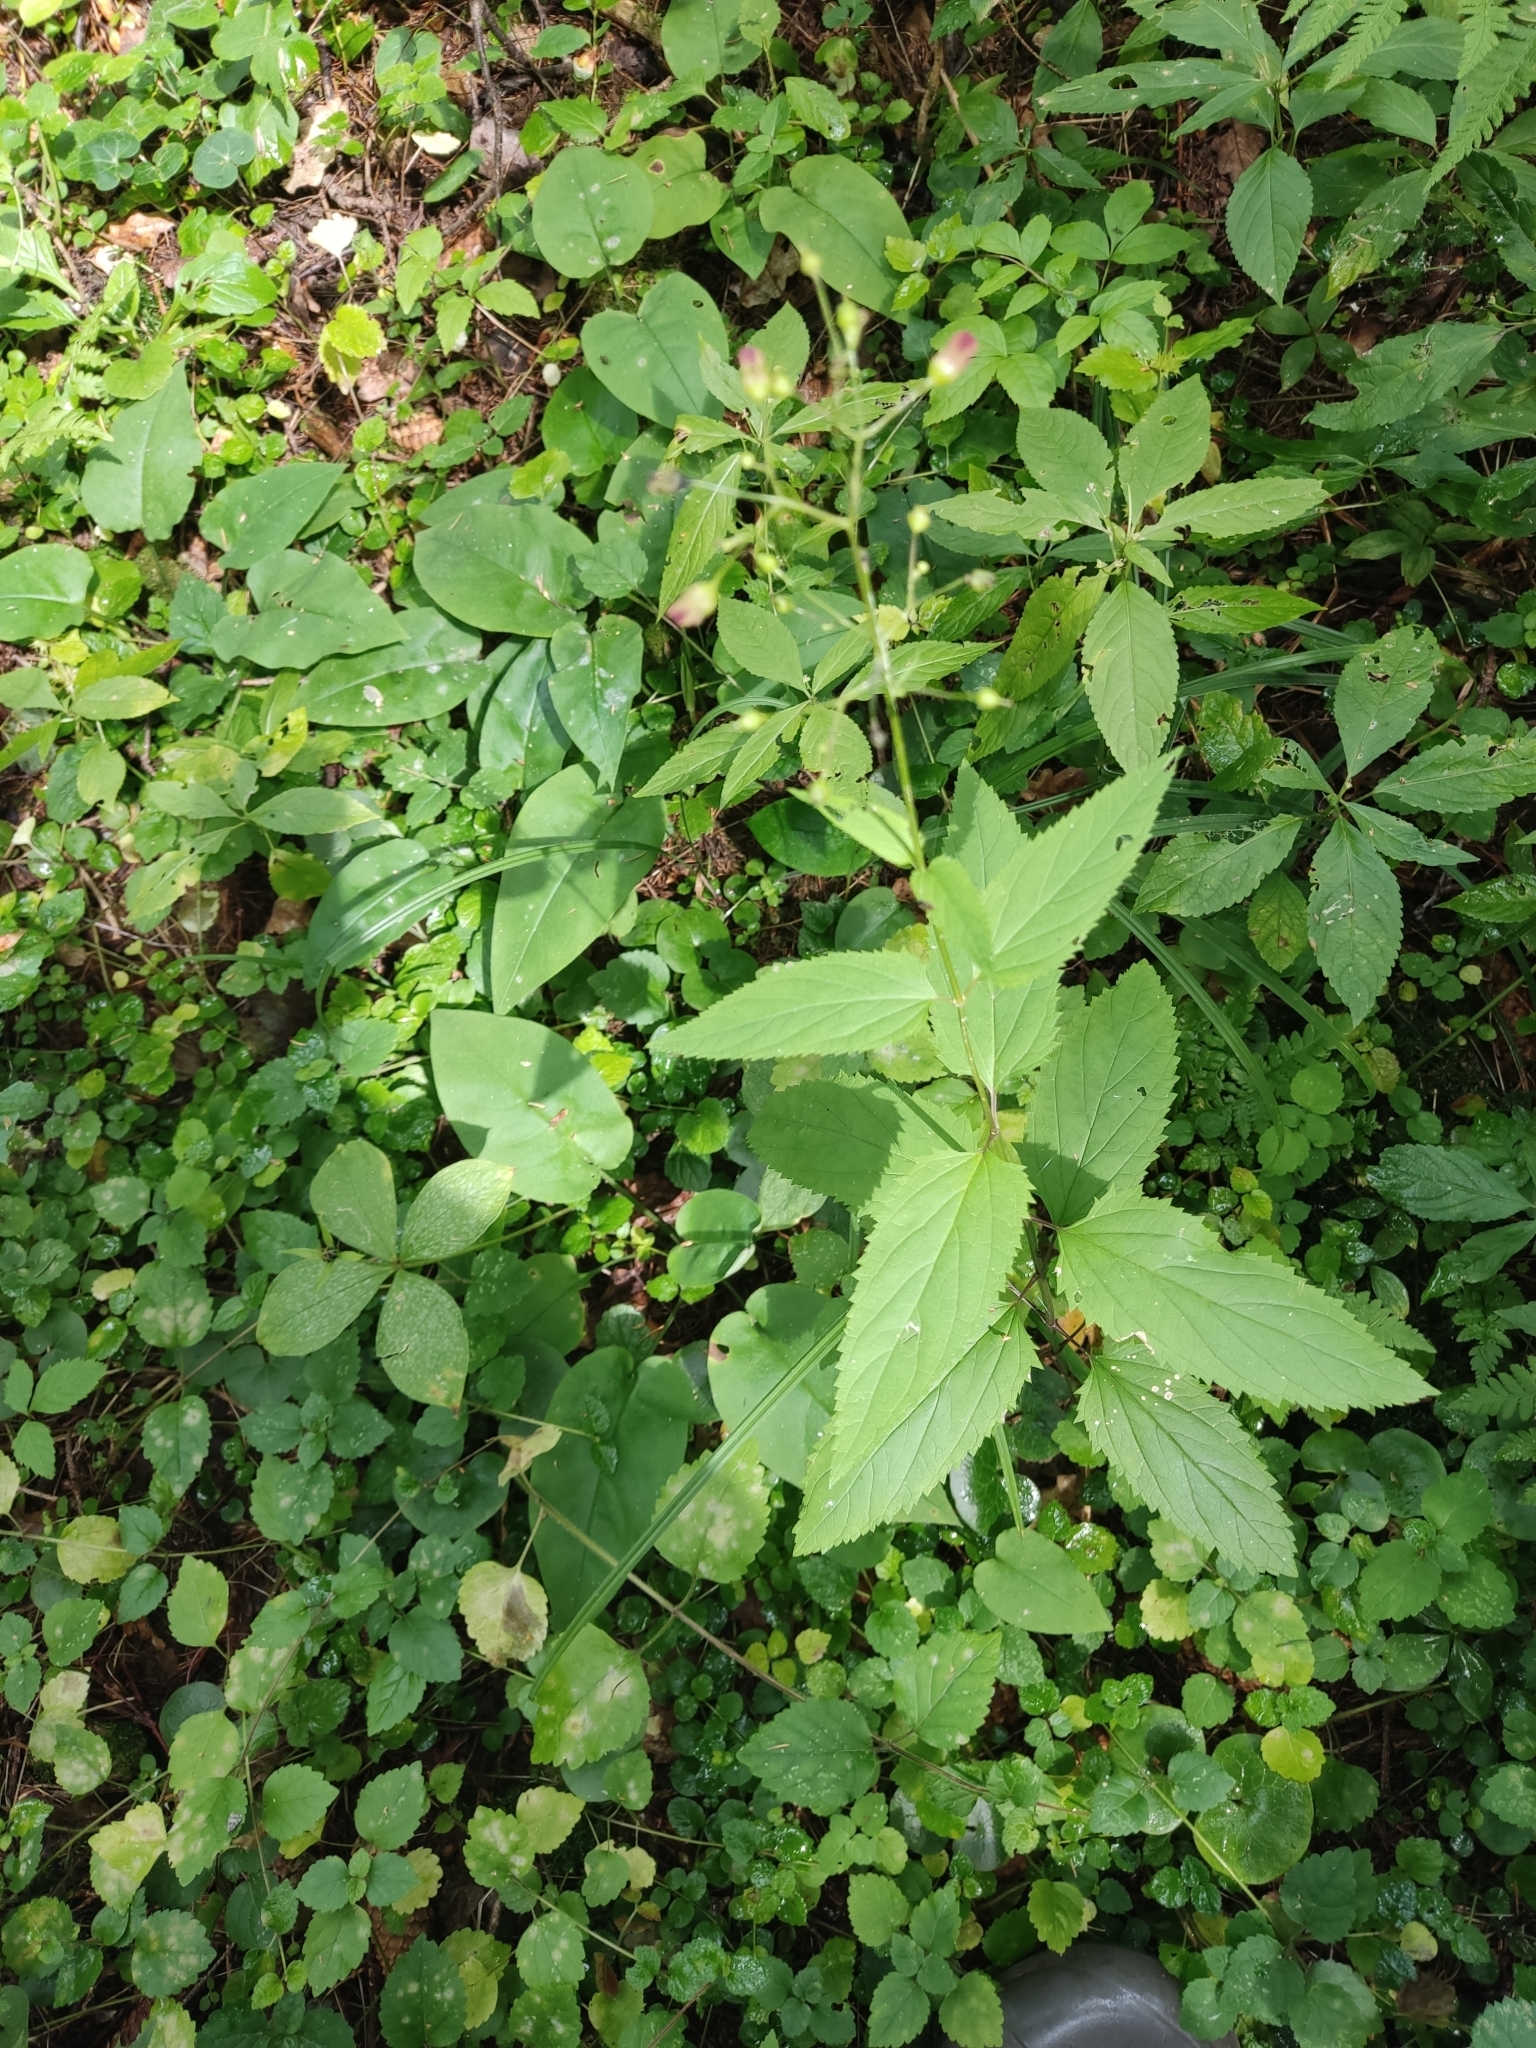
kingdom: Plantae
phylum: Tracheophyta
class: Magnoliopsida
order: Lamiales
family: Scrophulariaceae
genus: Scrophularia
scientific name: Scrophularia nodosa
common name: Common figwort
